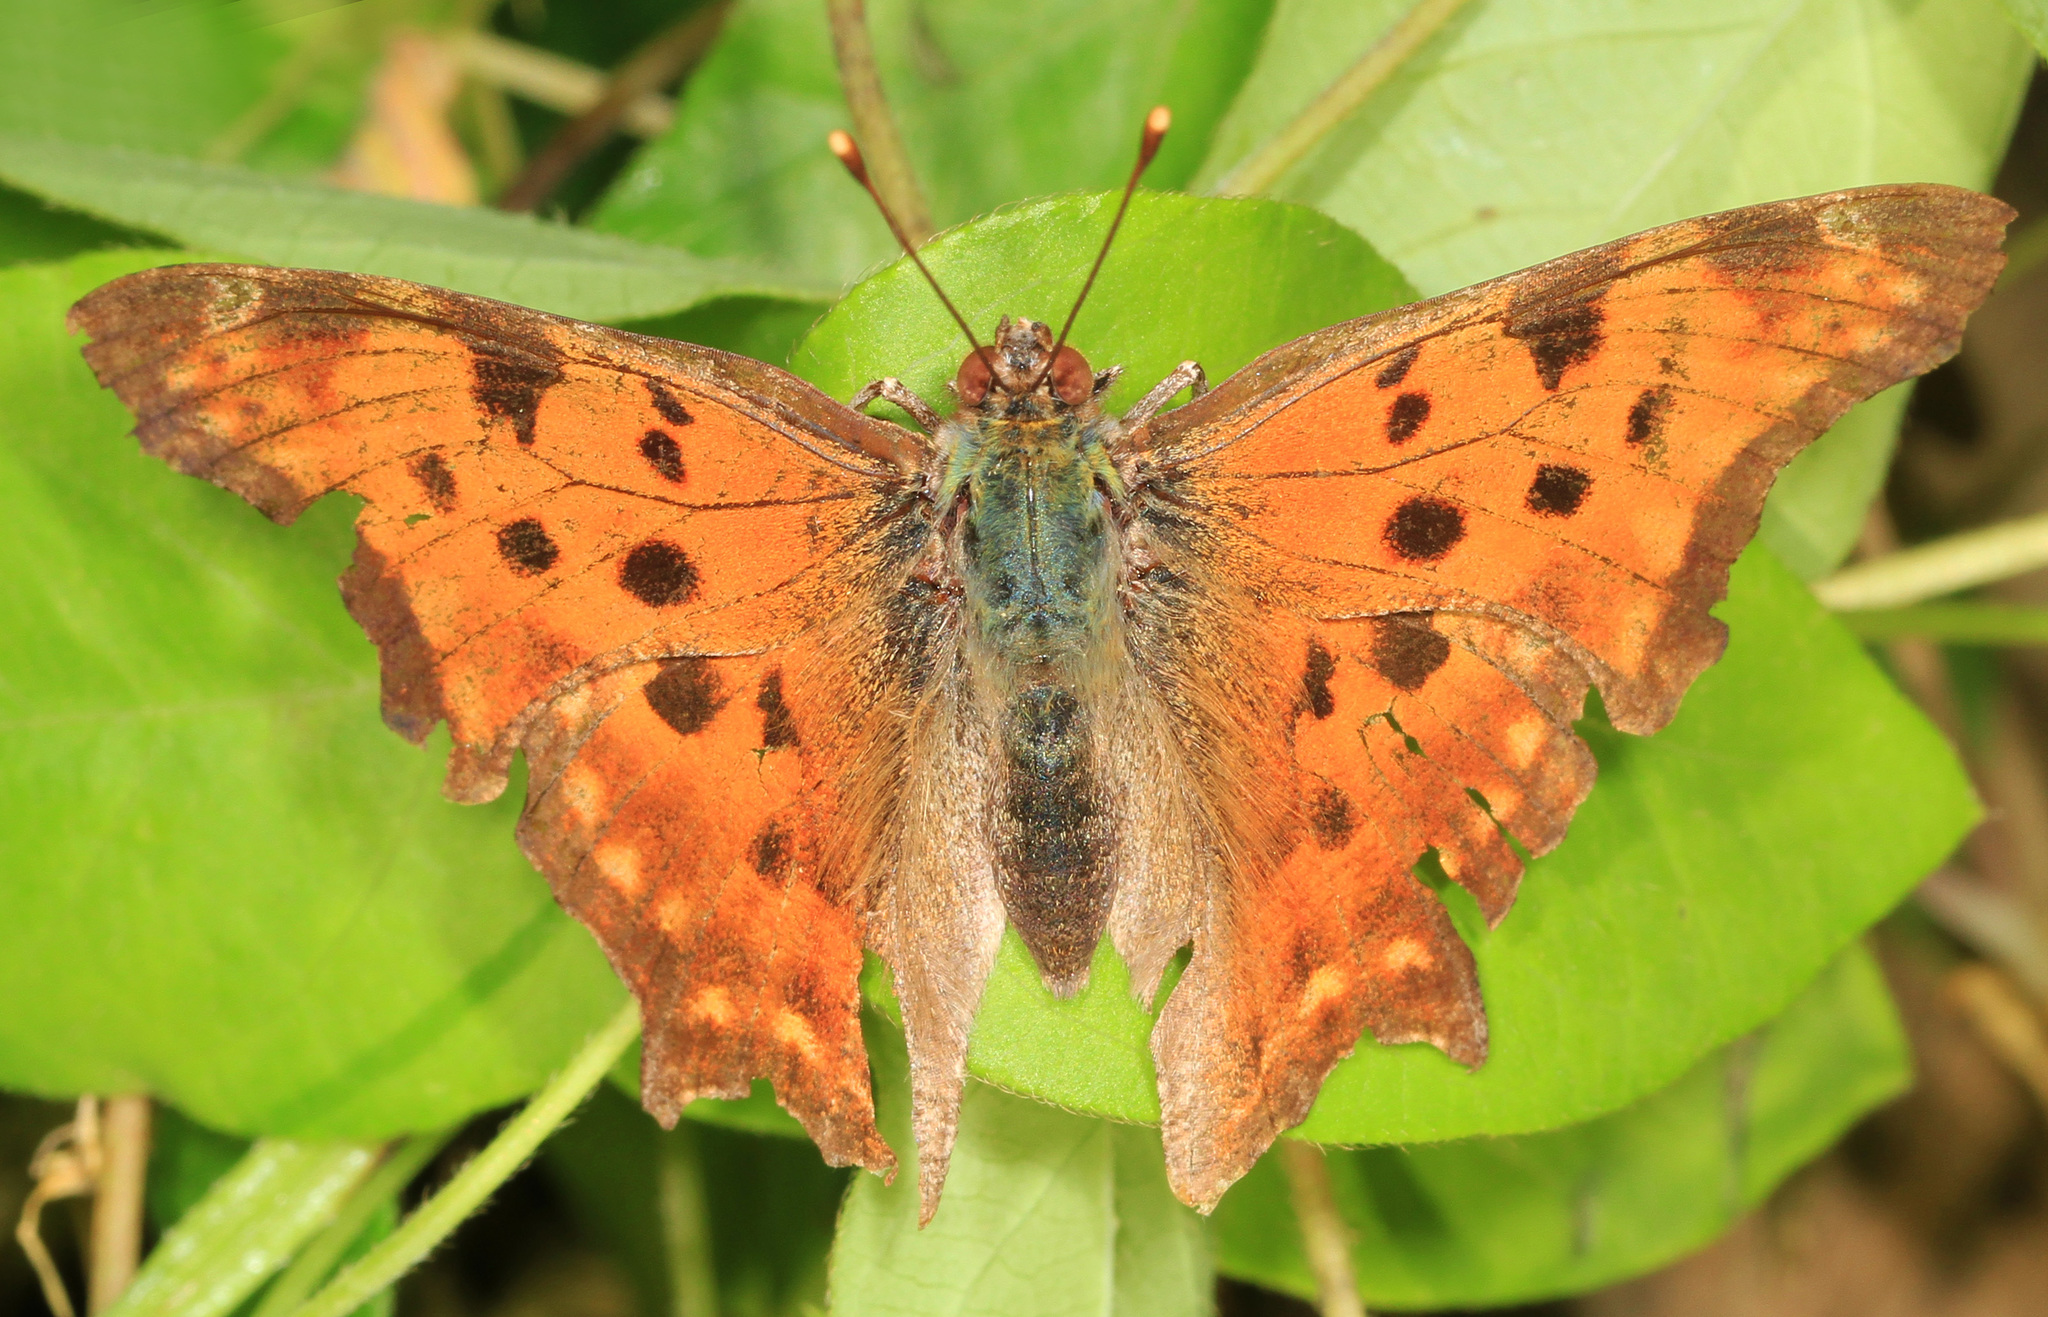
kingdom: Animalia
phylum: Arthropoda
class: Insecta
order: Lepidoptera
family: Nymphalidae
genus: Polygonia
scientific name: Polygonia comma
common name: Eastern comma
